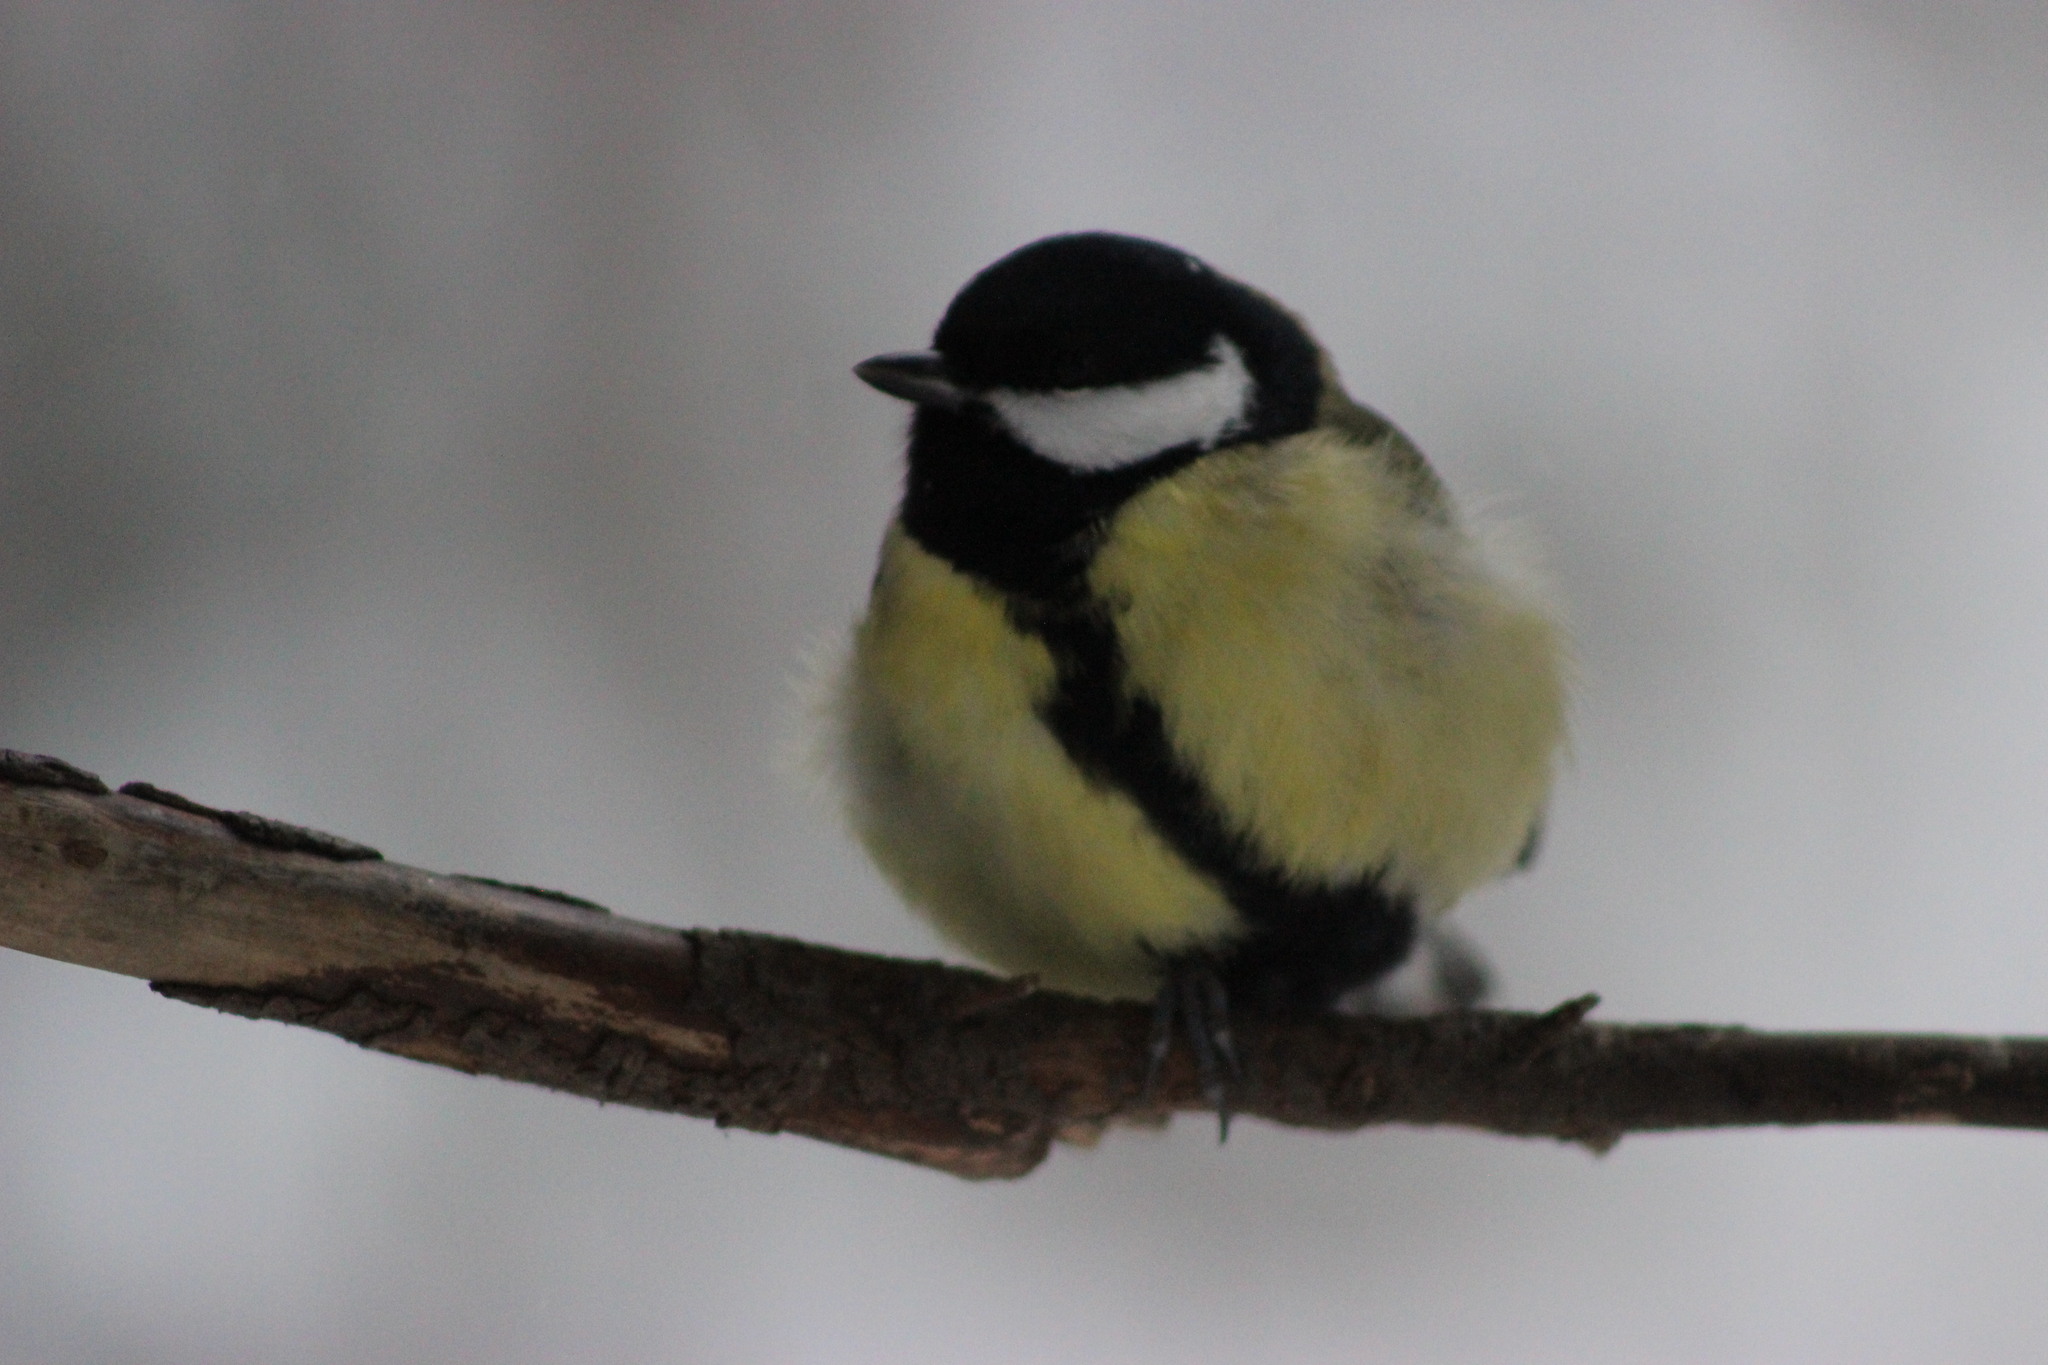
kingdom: Animalia
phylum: Chordata
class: Aves
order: Passeriformes
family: Paridae
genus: Parus
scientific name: Parus major
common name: Great tit
